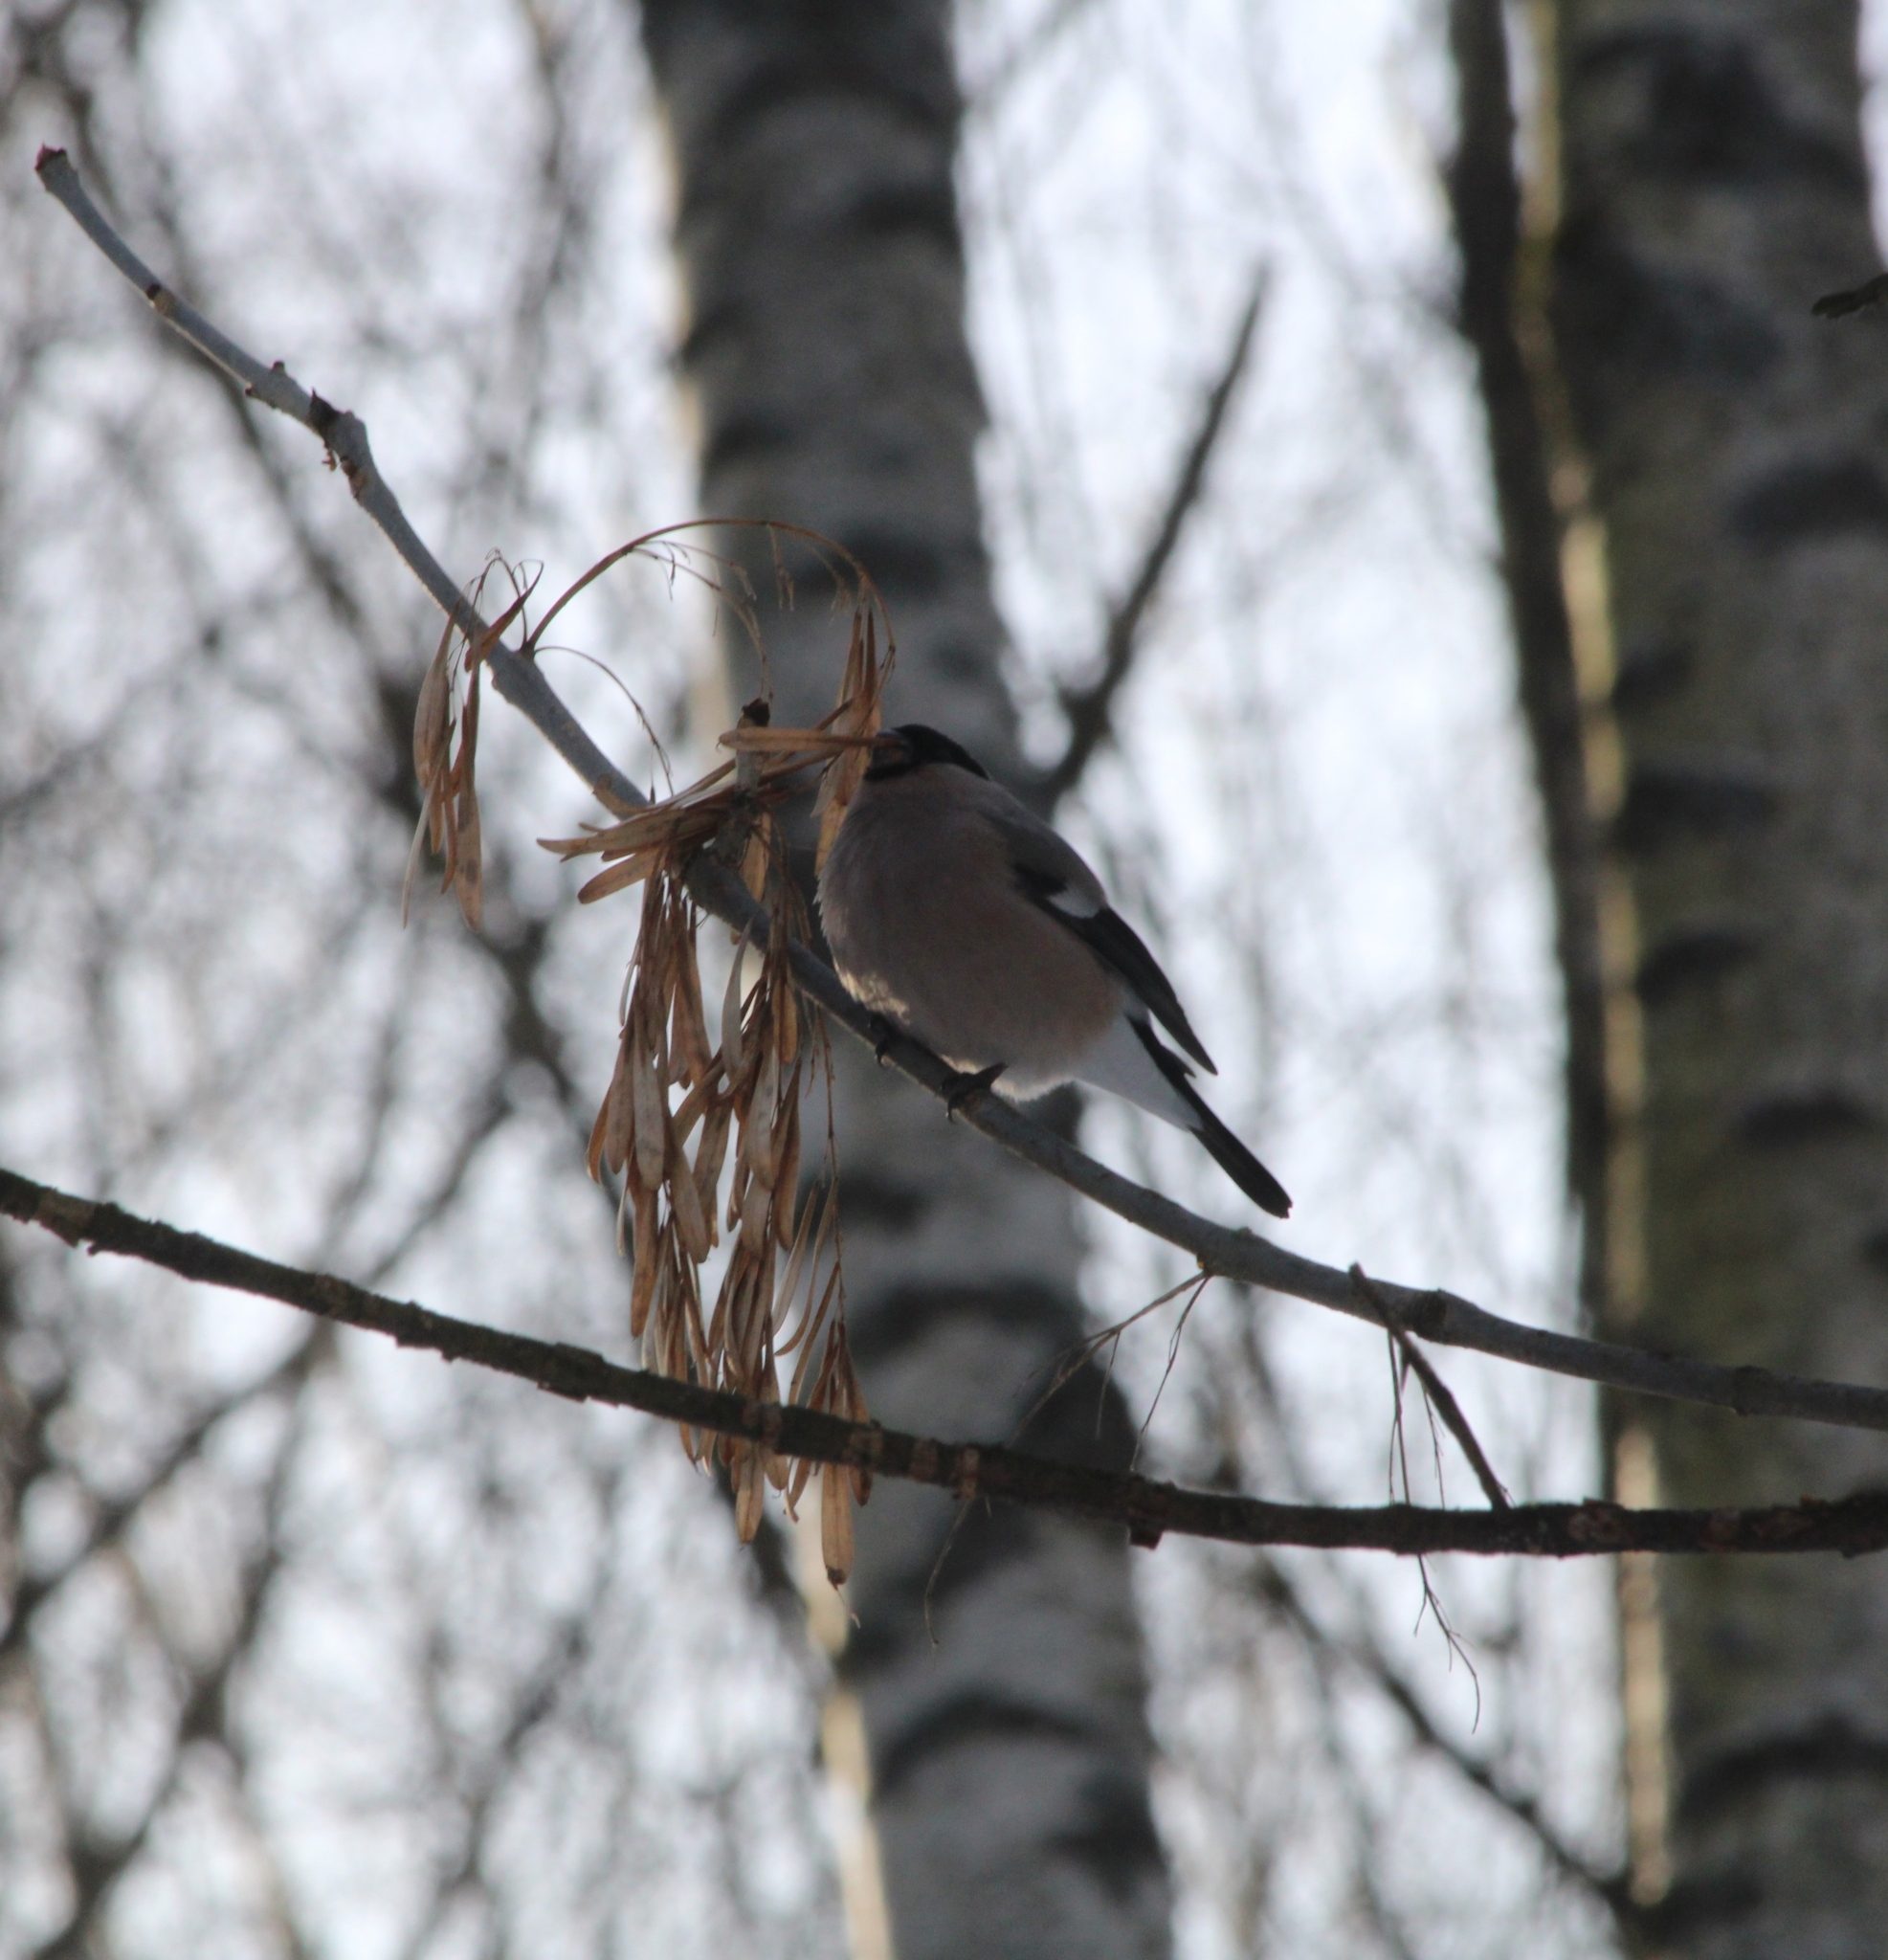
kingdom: Animalia
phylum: Chordata
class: Aves
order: Passeriformes
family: Fringillidae
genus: Pyrrhula
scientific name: Pyrrhula pyrrhula
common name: Eurasian bullfinch
